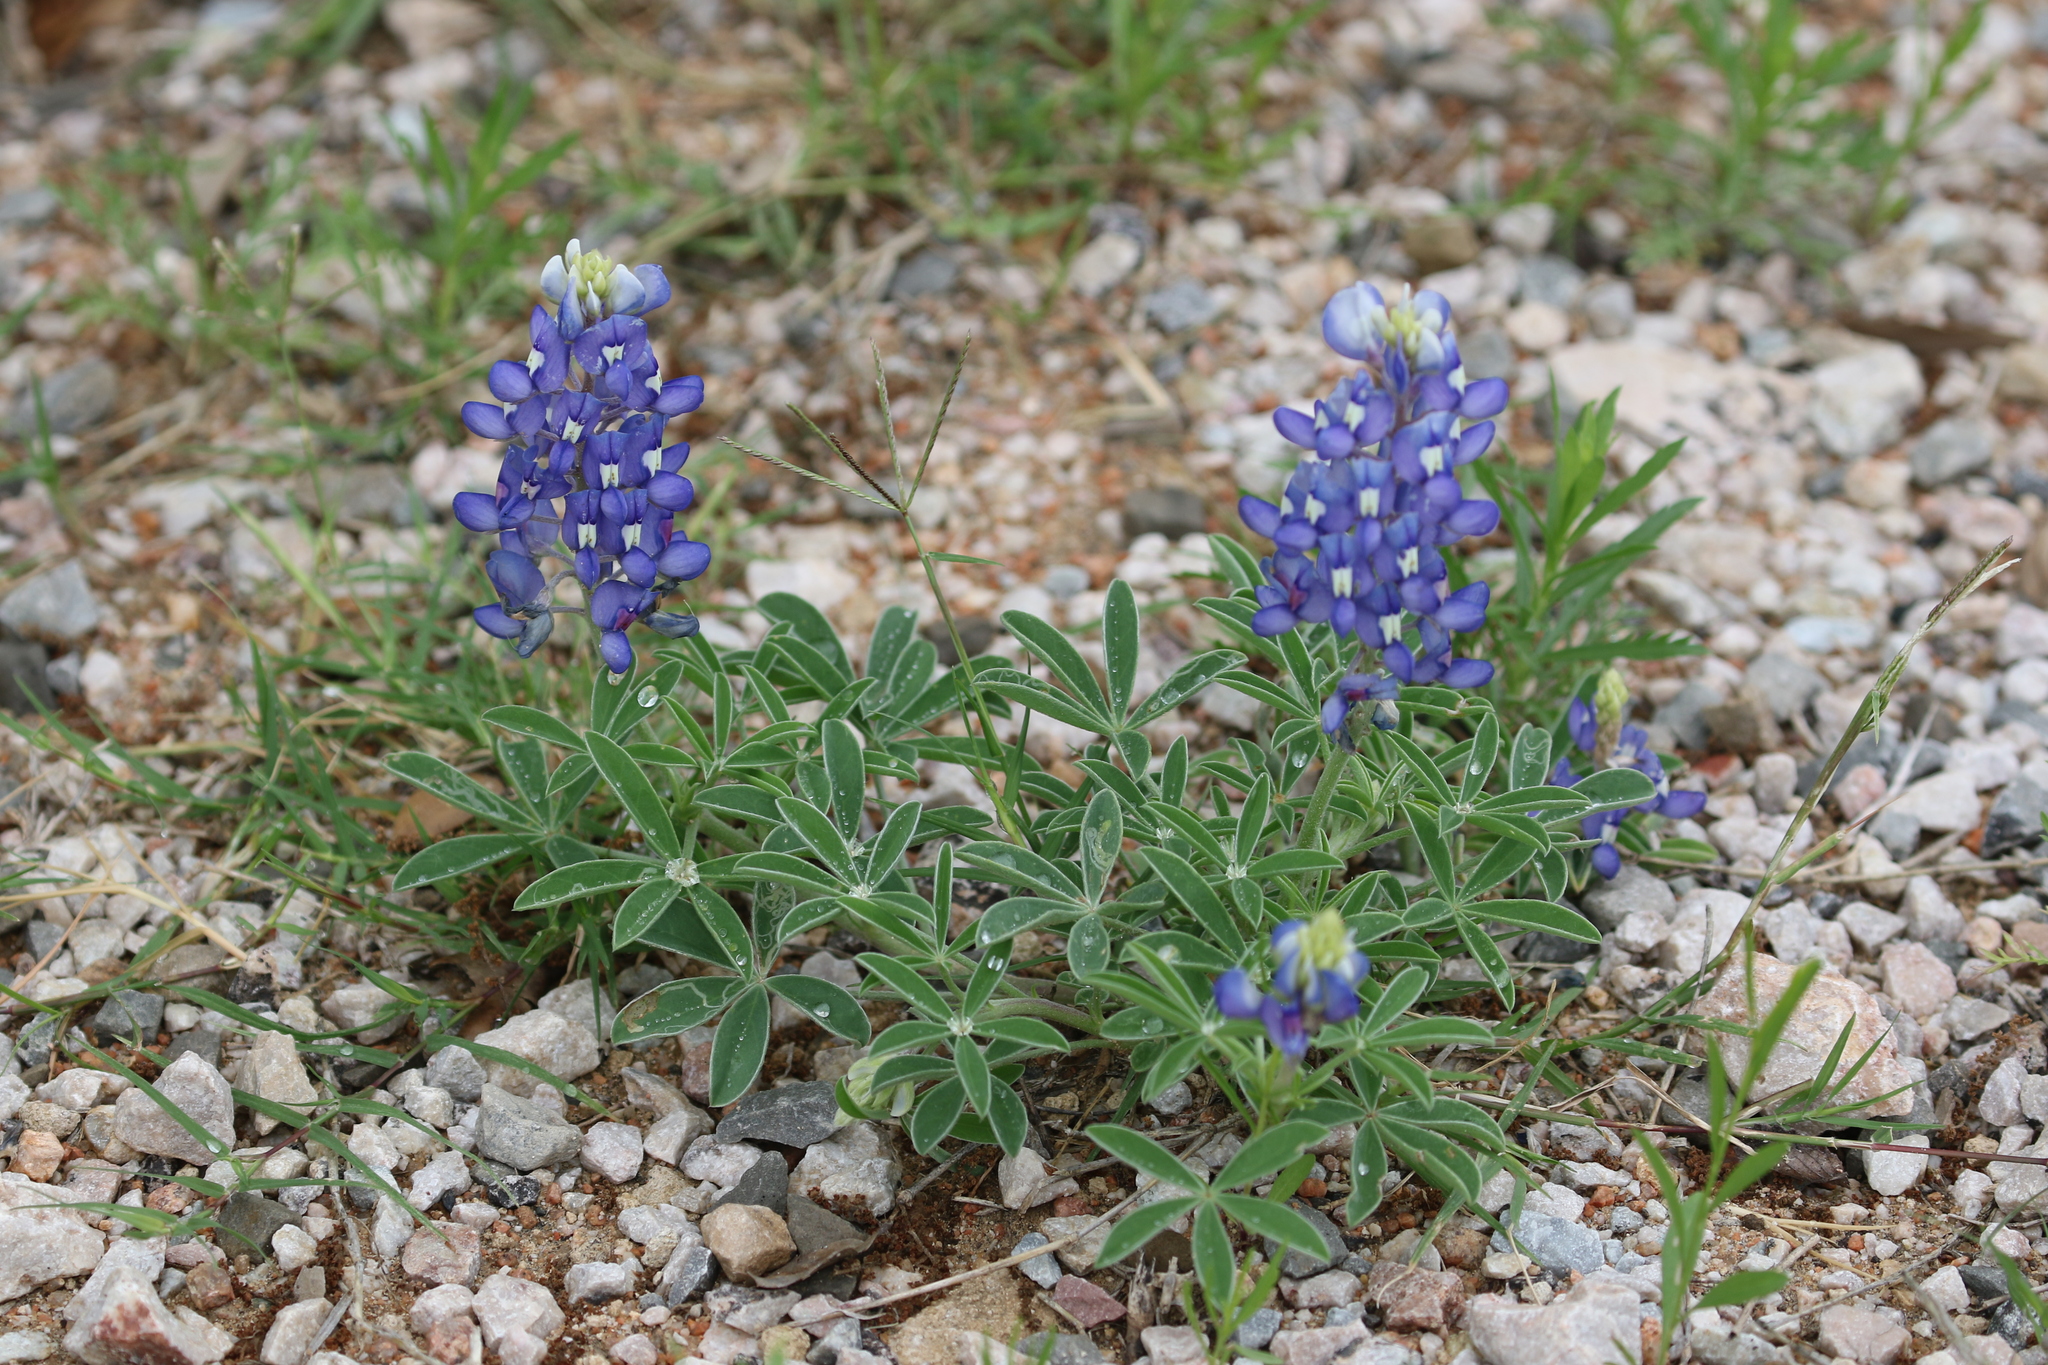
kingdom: Plantae
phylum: Tracheophyta
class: Magnoliopsida
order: Fabales
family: Fabaceae
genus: Lupinus
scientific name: Lupinus texensis
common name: Texas bluebonnet
